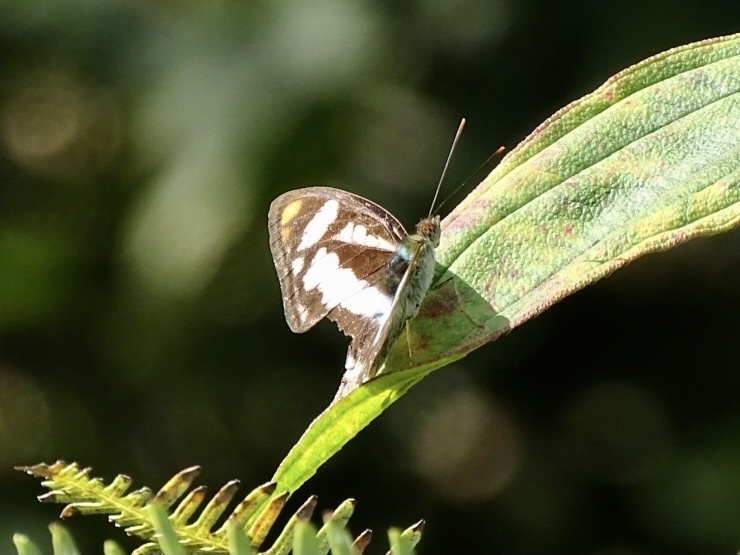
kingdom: Animalia
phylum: Arthropoda
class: Insecta
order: Lepidoptera
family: Nymphalidae
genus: Parathyma
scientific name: Parathyma nefte
